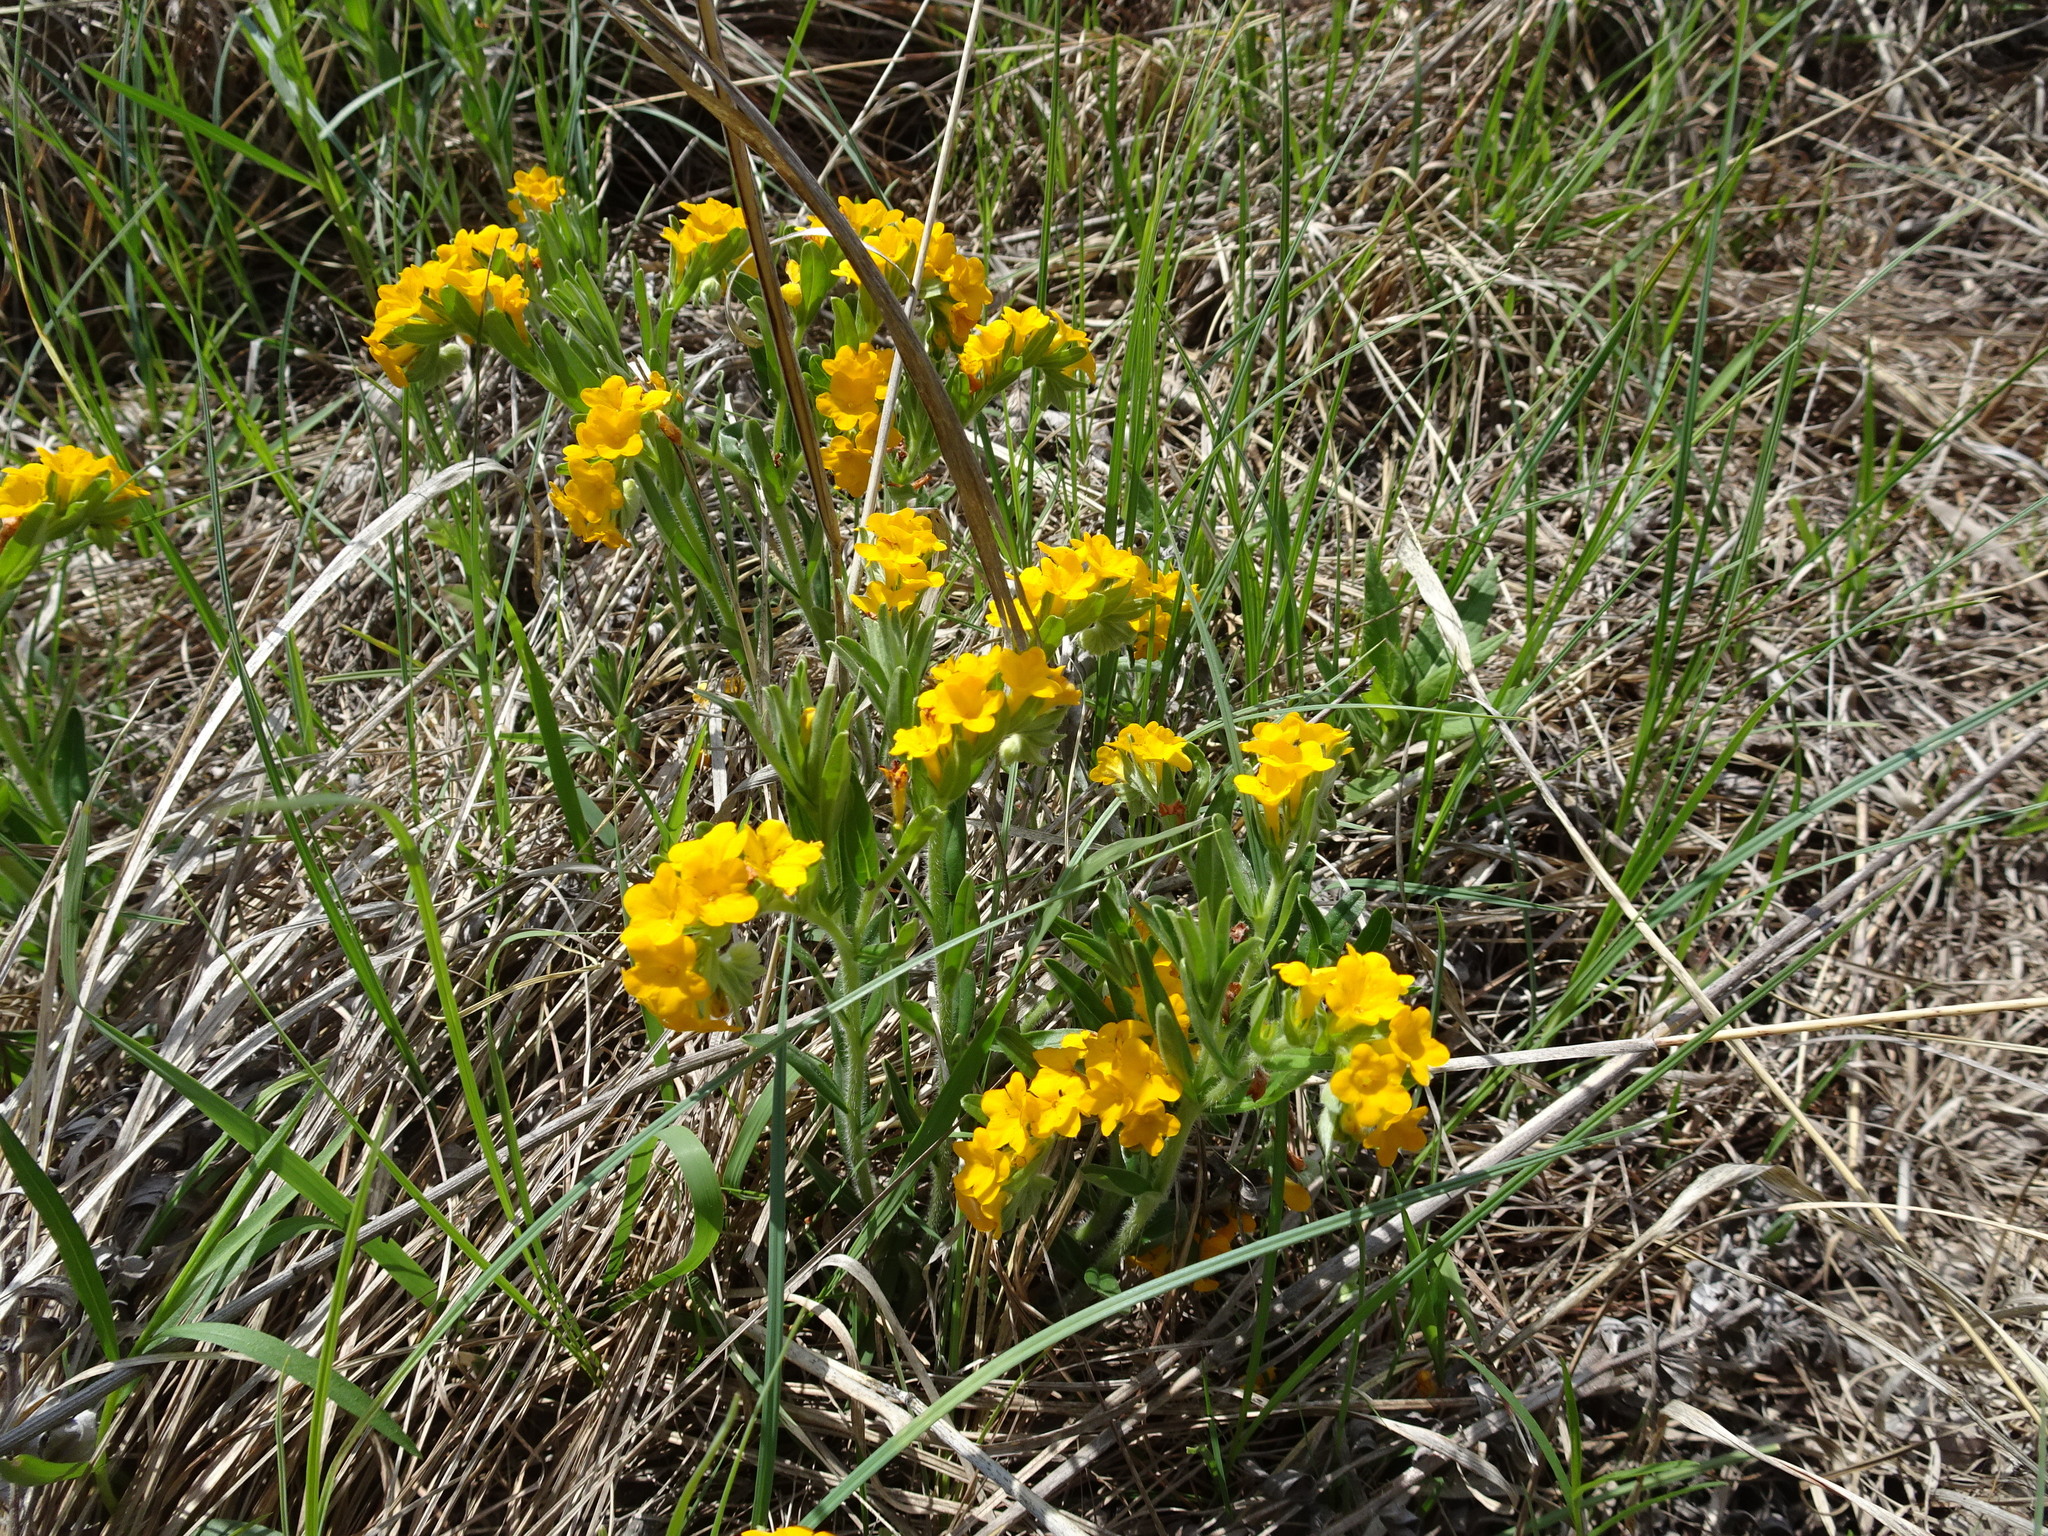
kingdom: Plantae
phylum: Tracheophyta
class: Magnoliopsida
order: Boraginales
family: Boraginaceae
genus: Lithospermum
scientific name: Lithospermum canescens
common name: Hoary puccoon
